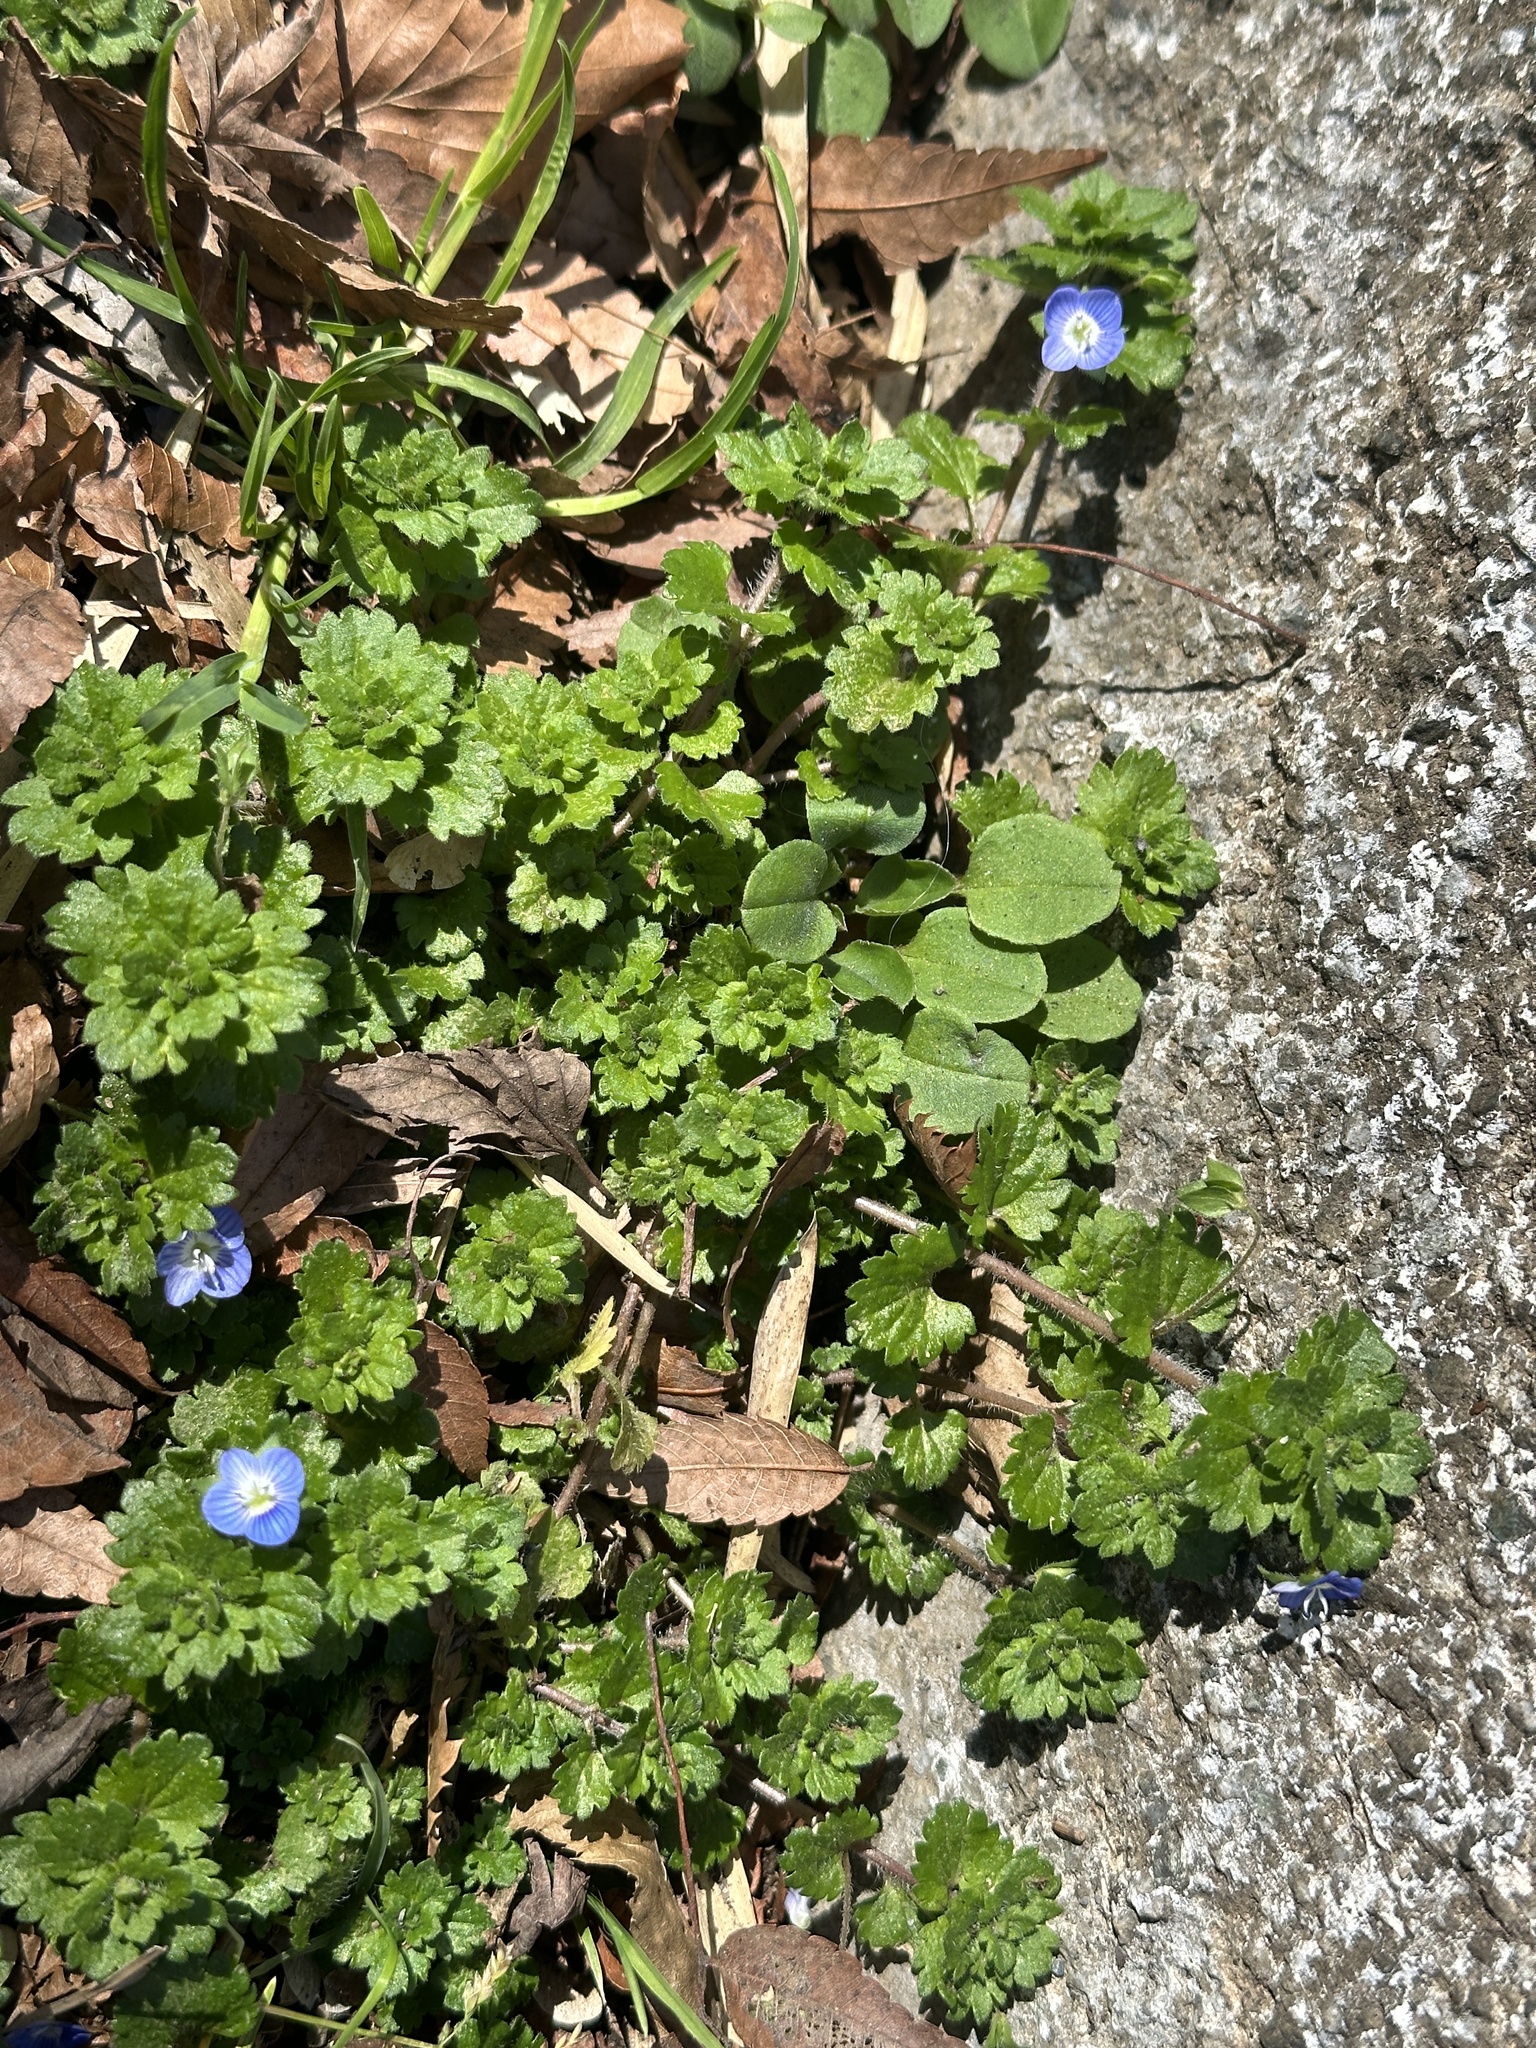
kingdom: Plantae
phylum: Tracheophyta
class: Magnoliopsida
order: Lamiales
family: Plantaginaceae
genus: Veronica
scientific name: Veronica persica
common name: Common field-speedwell
